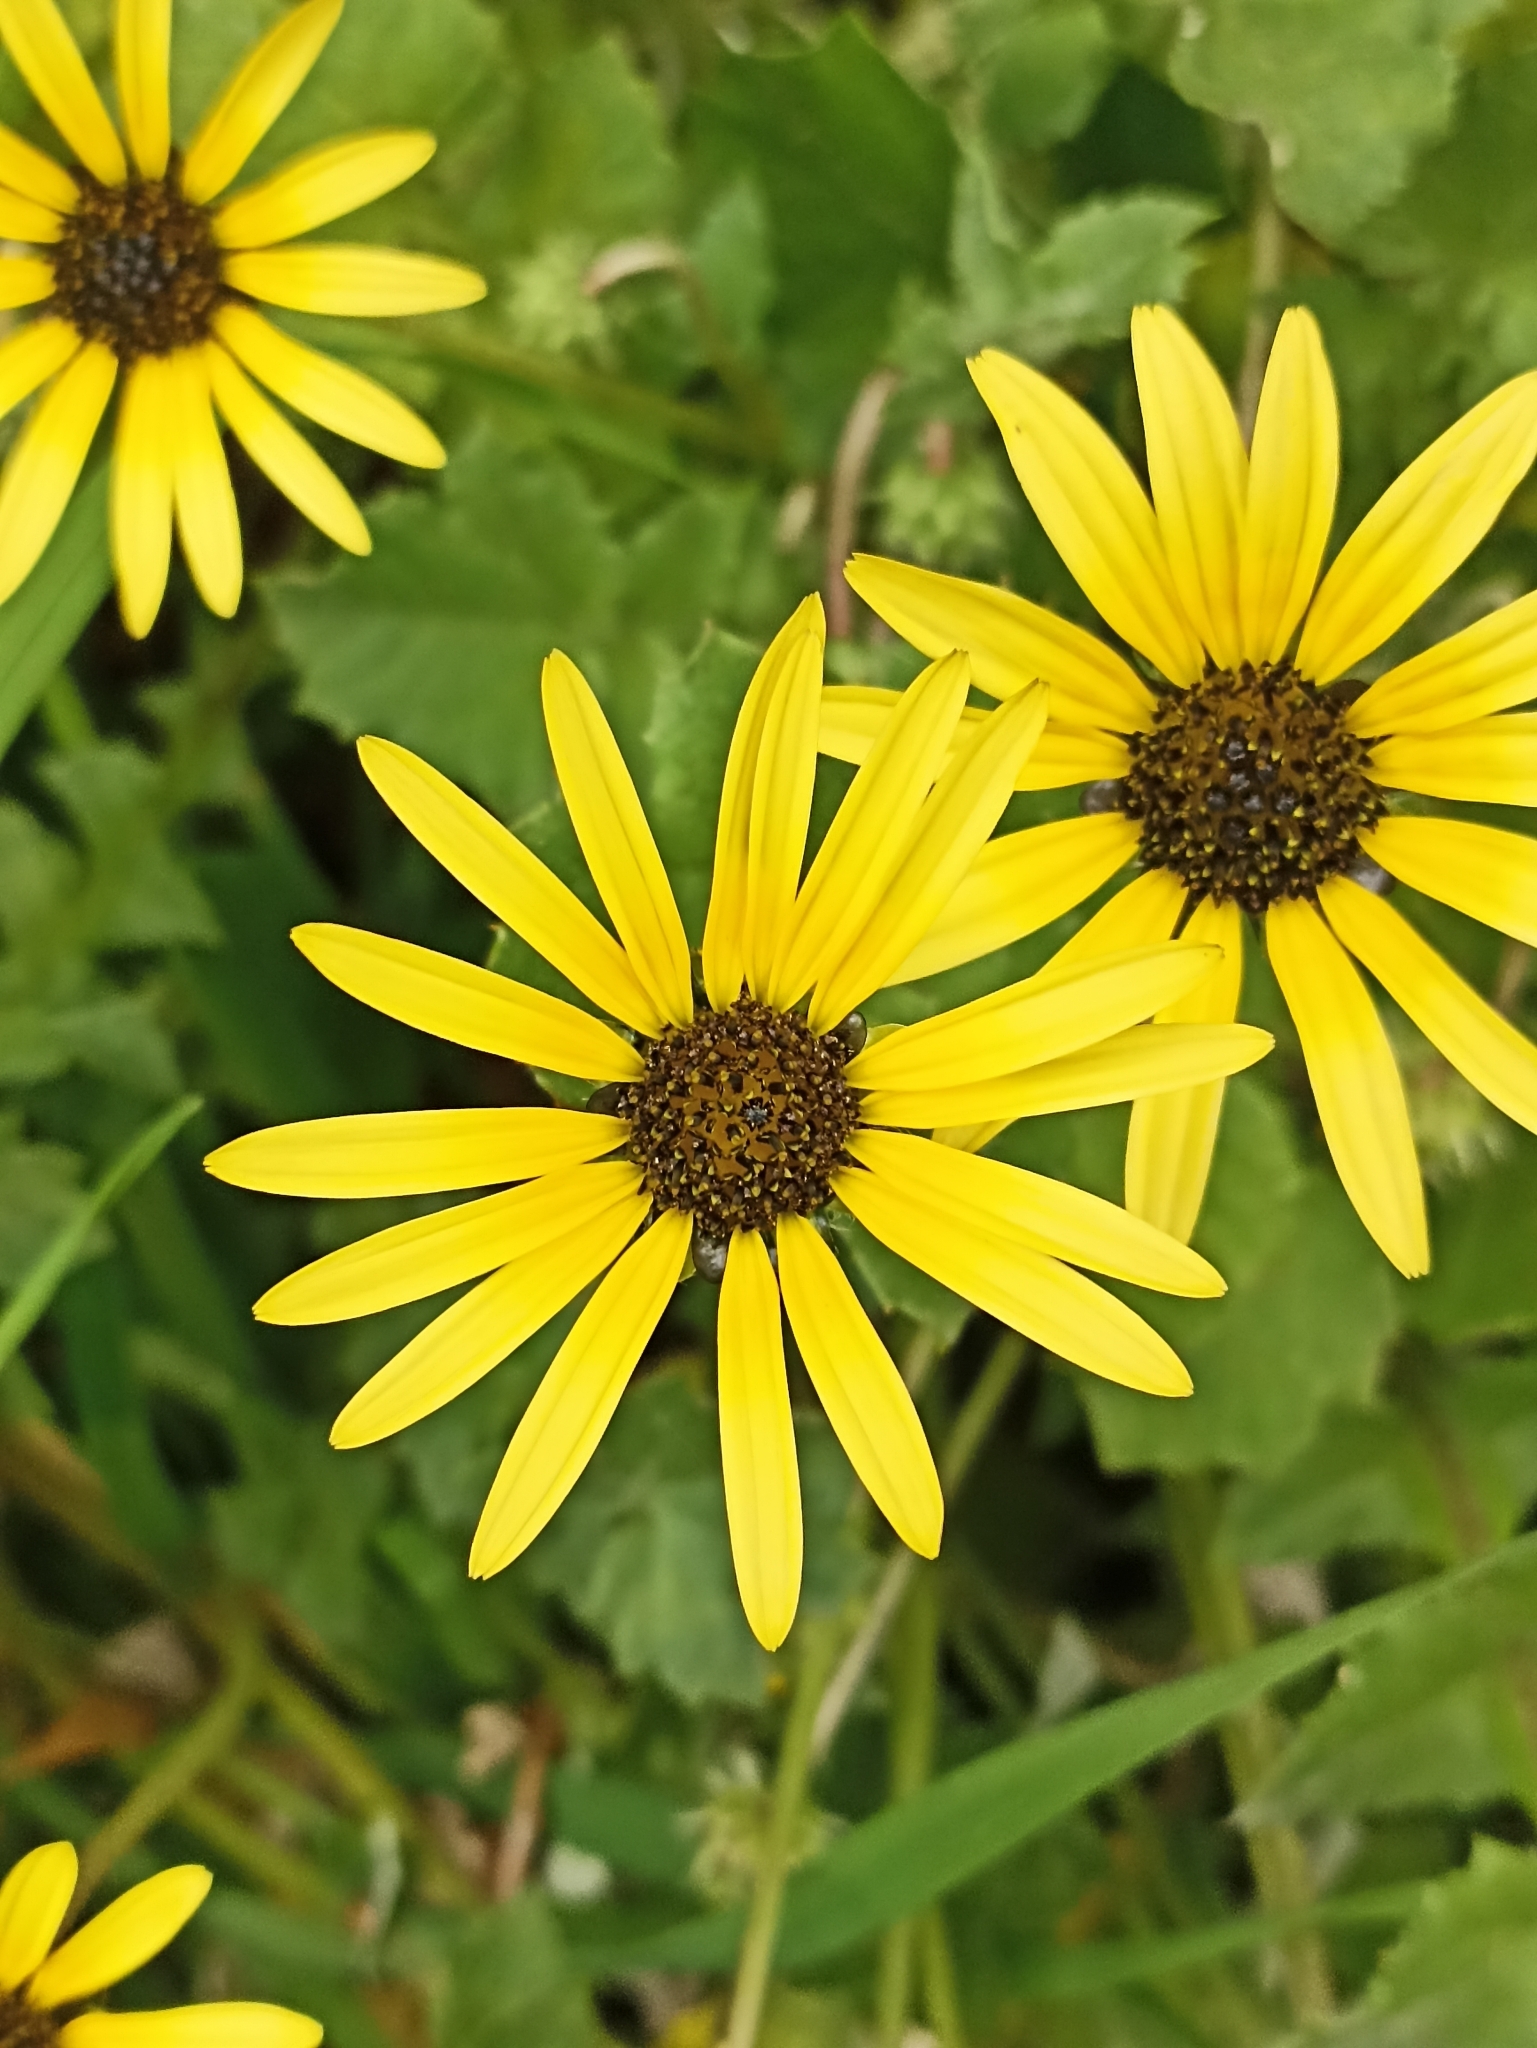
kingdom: Plantae
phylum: Tracheophyta
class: Magnoliopsida
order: Asterales
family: Asteraceae
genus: Arctotheca
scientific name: Arctotheca calendula
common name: Capeweed
